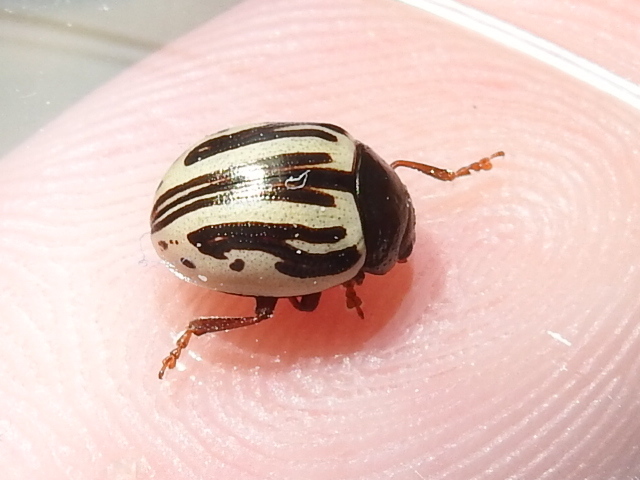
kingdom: Animalia
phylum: Arthropoda
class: Insecta
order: Coleoptera
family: Chrysomelidae
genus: Calligrapha
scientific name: Calligrapha
